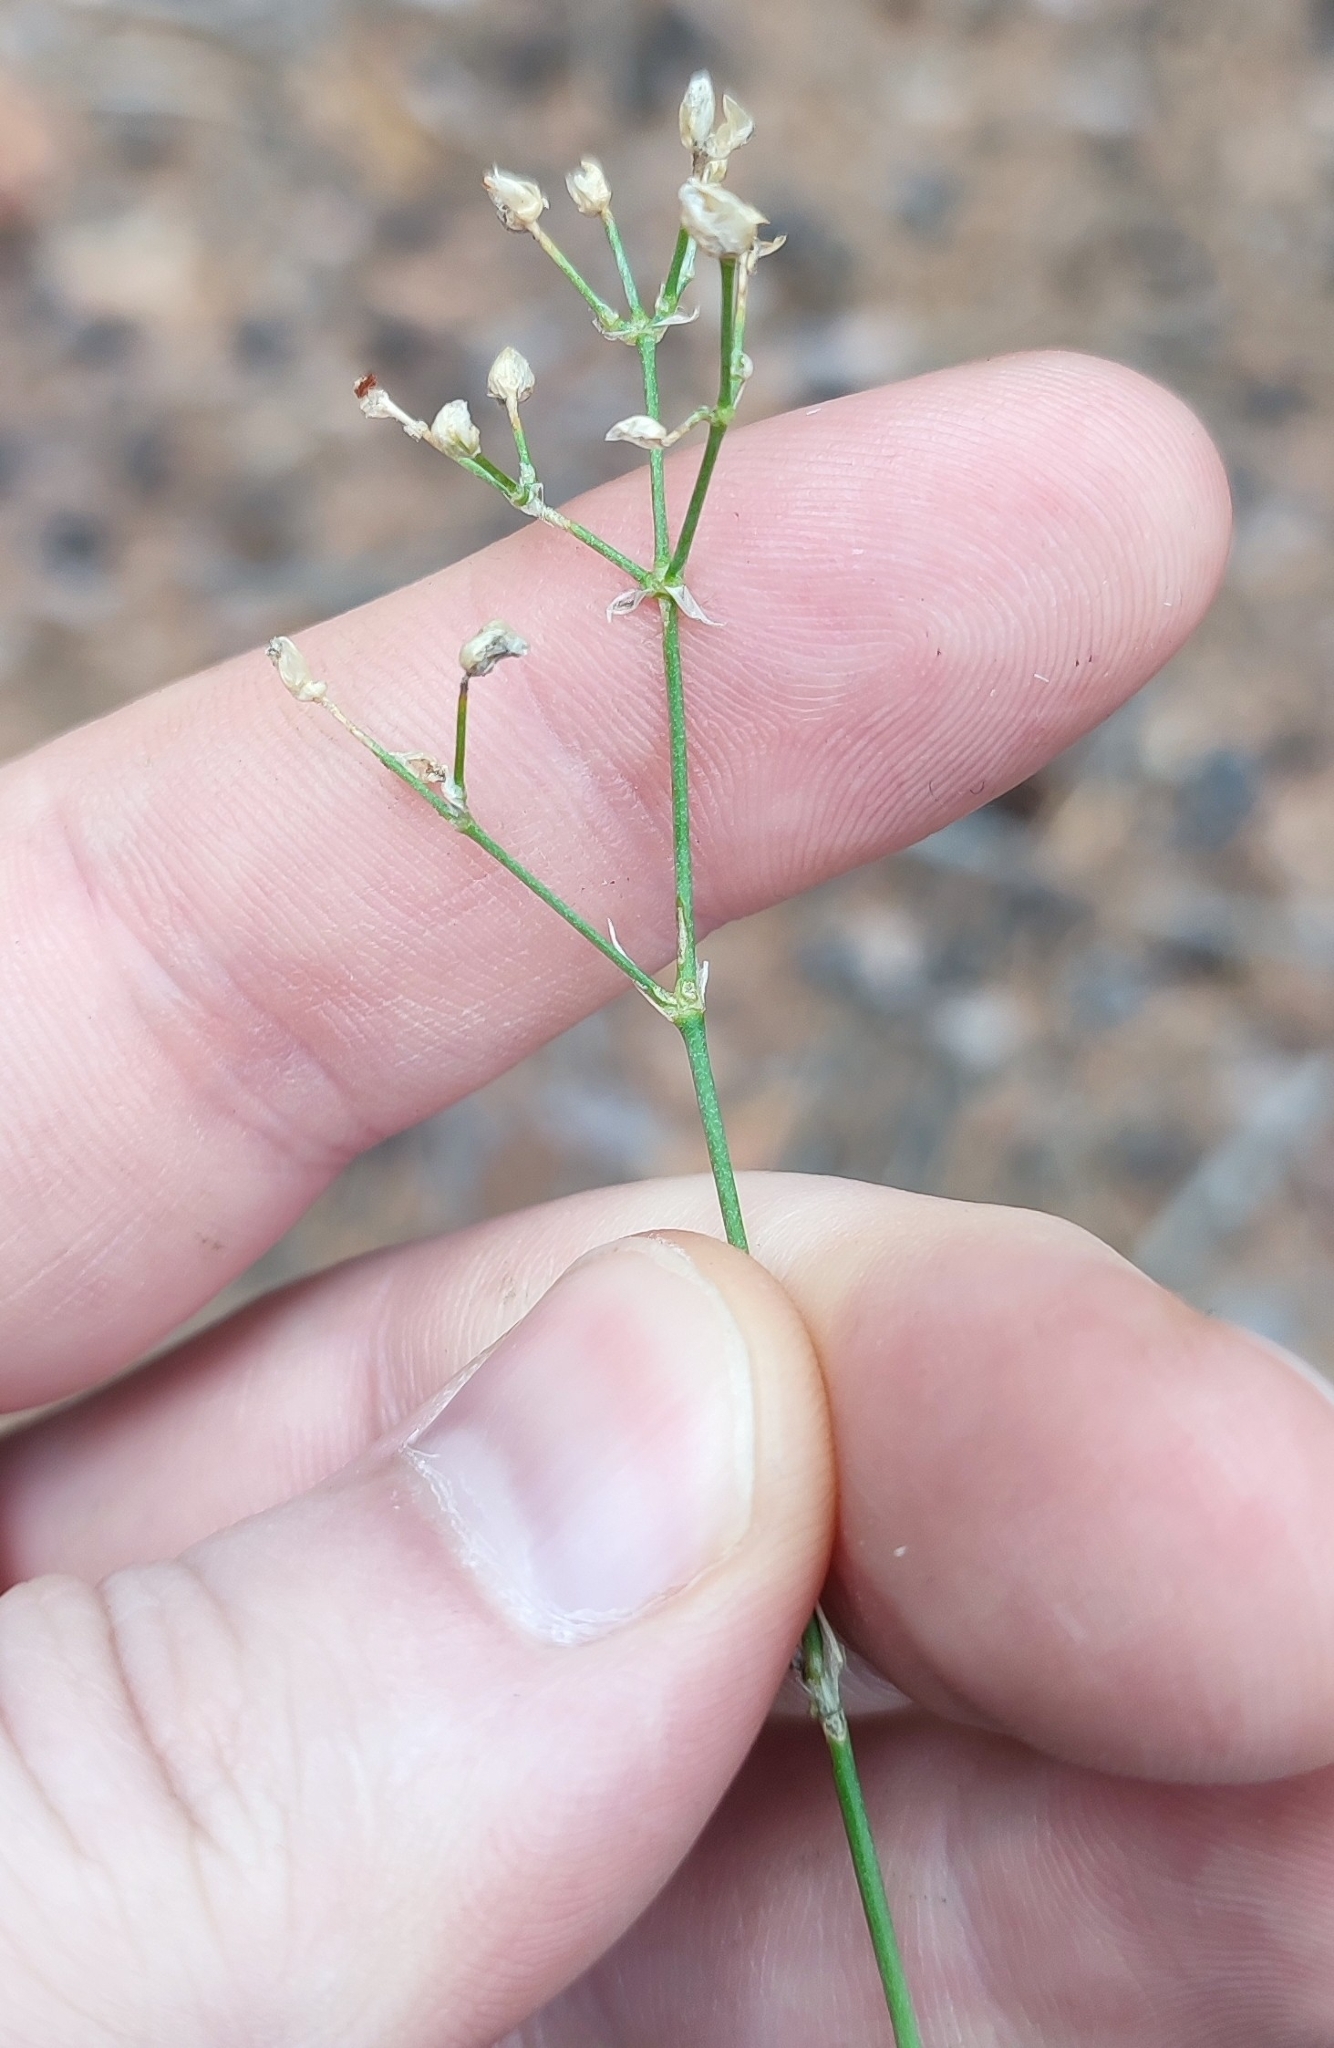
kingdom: Plantae
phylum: Tracheophyta
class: Magnoliopsida
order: Caryophyllales
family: Caryophyllaceae
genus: Eremogone
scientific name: Eremogone saxatilis
